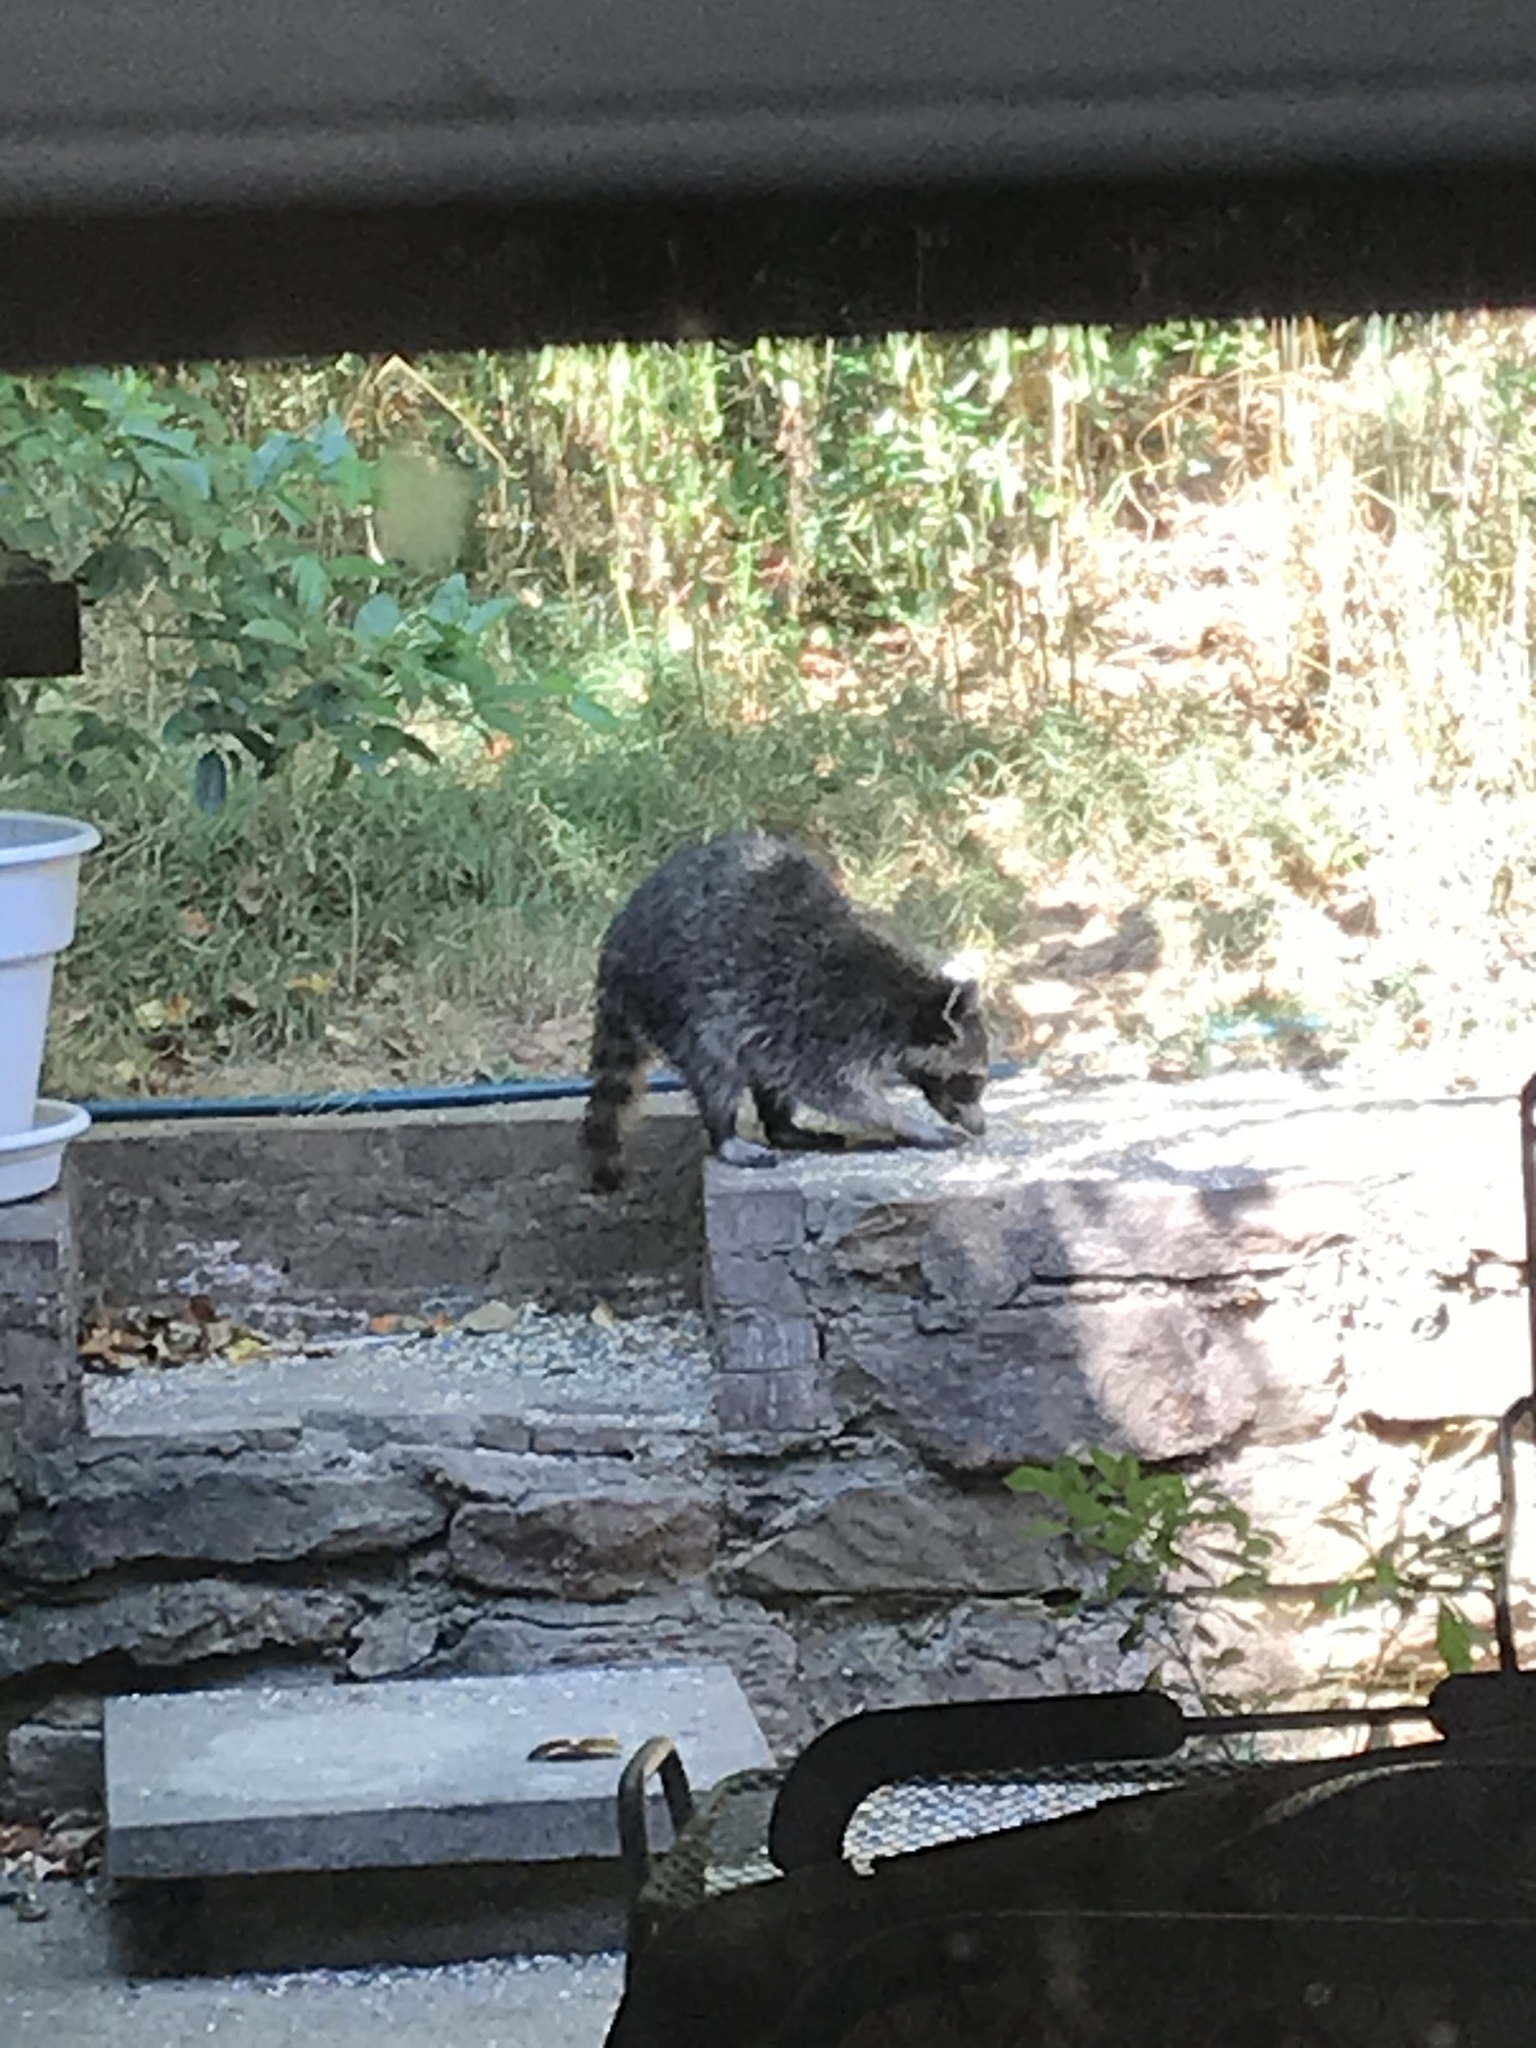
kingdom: Animalia
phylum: Chordata
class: Mammalia
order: Carnivora
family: Procyonidae
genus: Procyon
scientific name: Procyon lotor
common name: Raccoon
